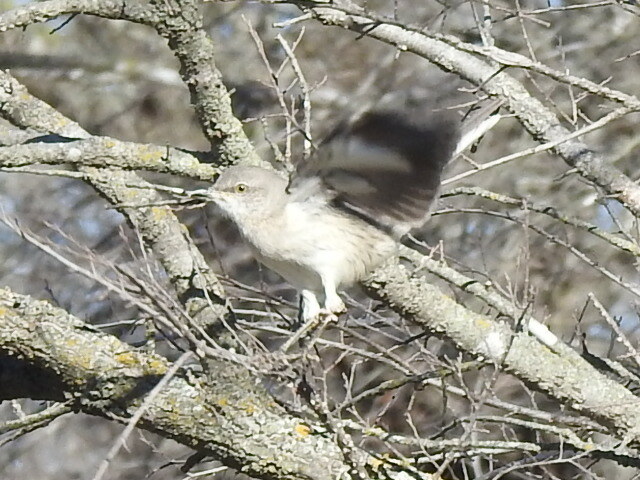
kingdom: Animalia
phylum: Chordata
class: Aves
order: Passeriformes
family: Mimidae
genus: Mimus
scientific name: Mimus polyglottos
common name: Northern mockingbird
